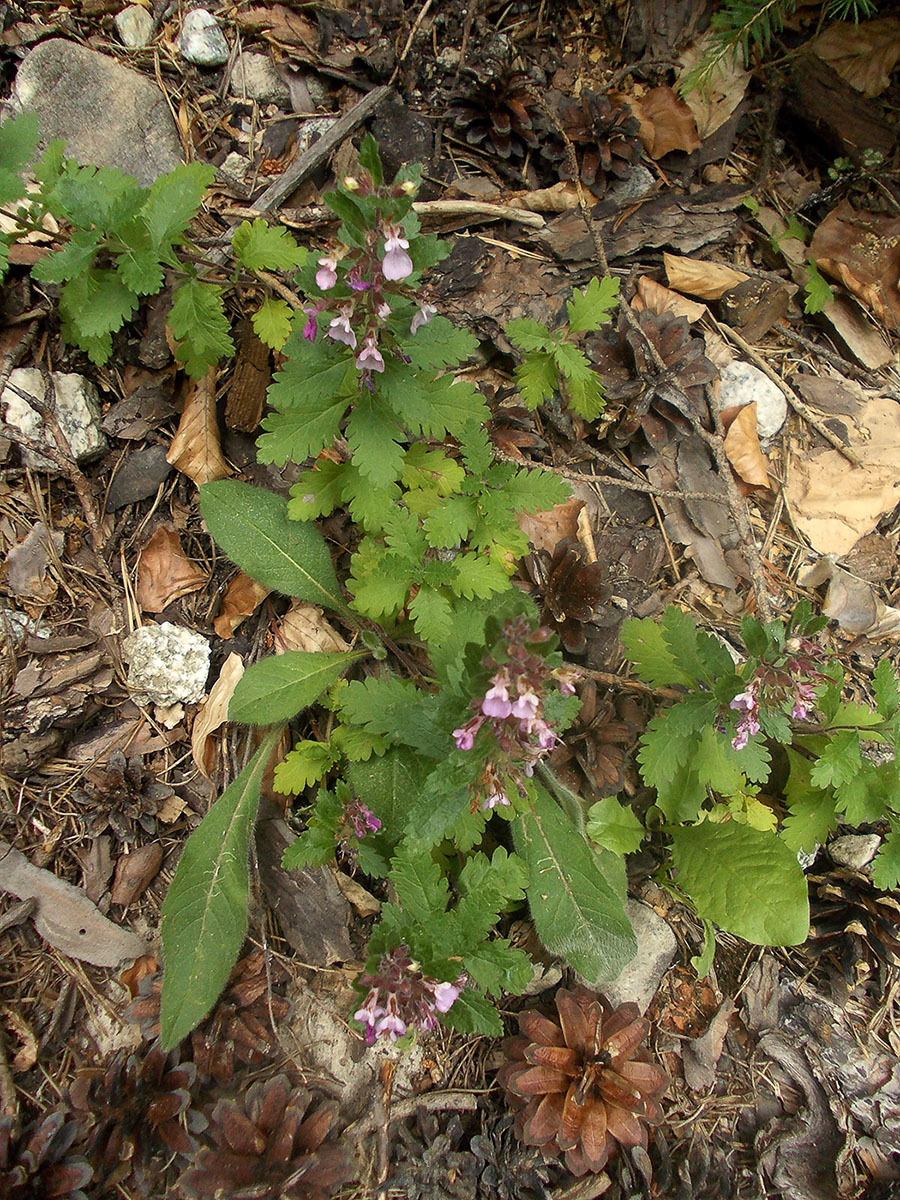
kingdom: Plantae
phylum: Tracheophyta
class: Magnoliopsida
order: Lamiales
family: Lamiaceae
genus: Teucrium
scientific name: Teucrium chamaedrys
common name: Wall germander
